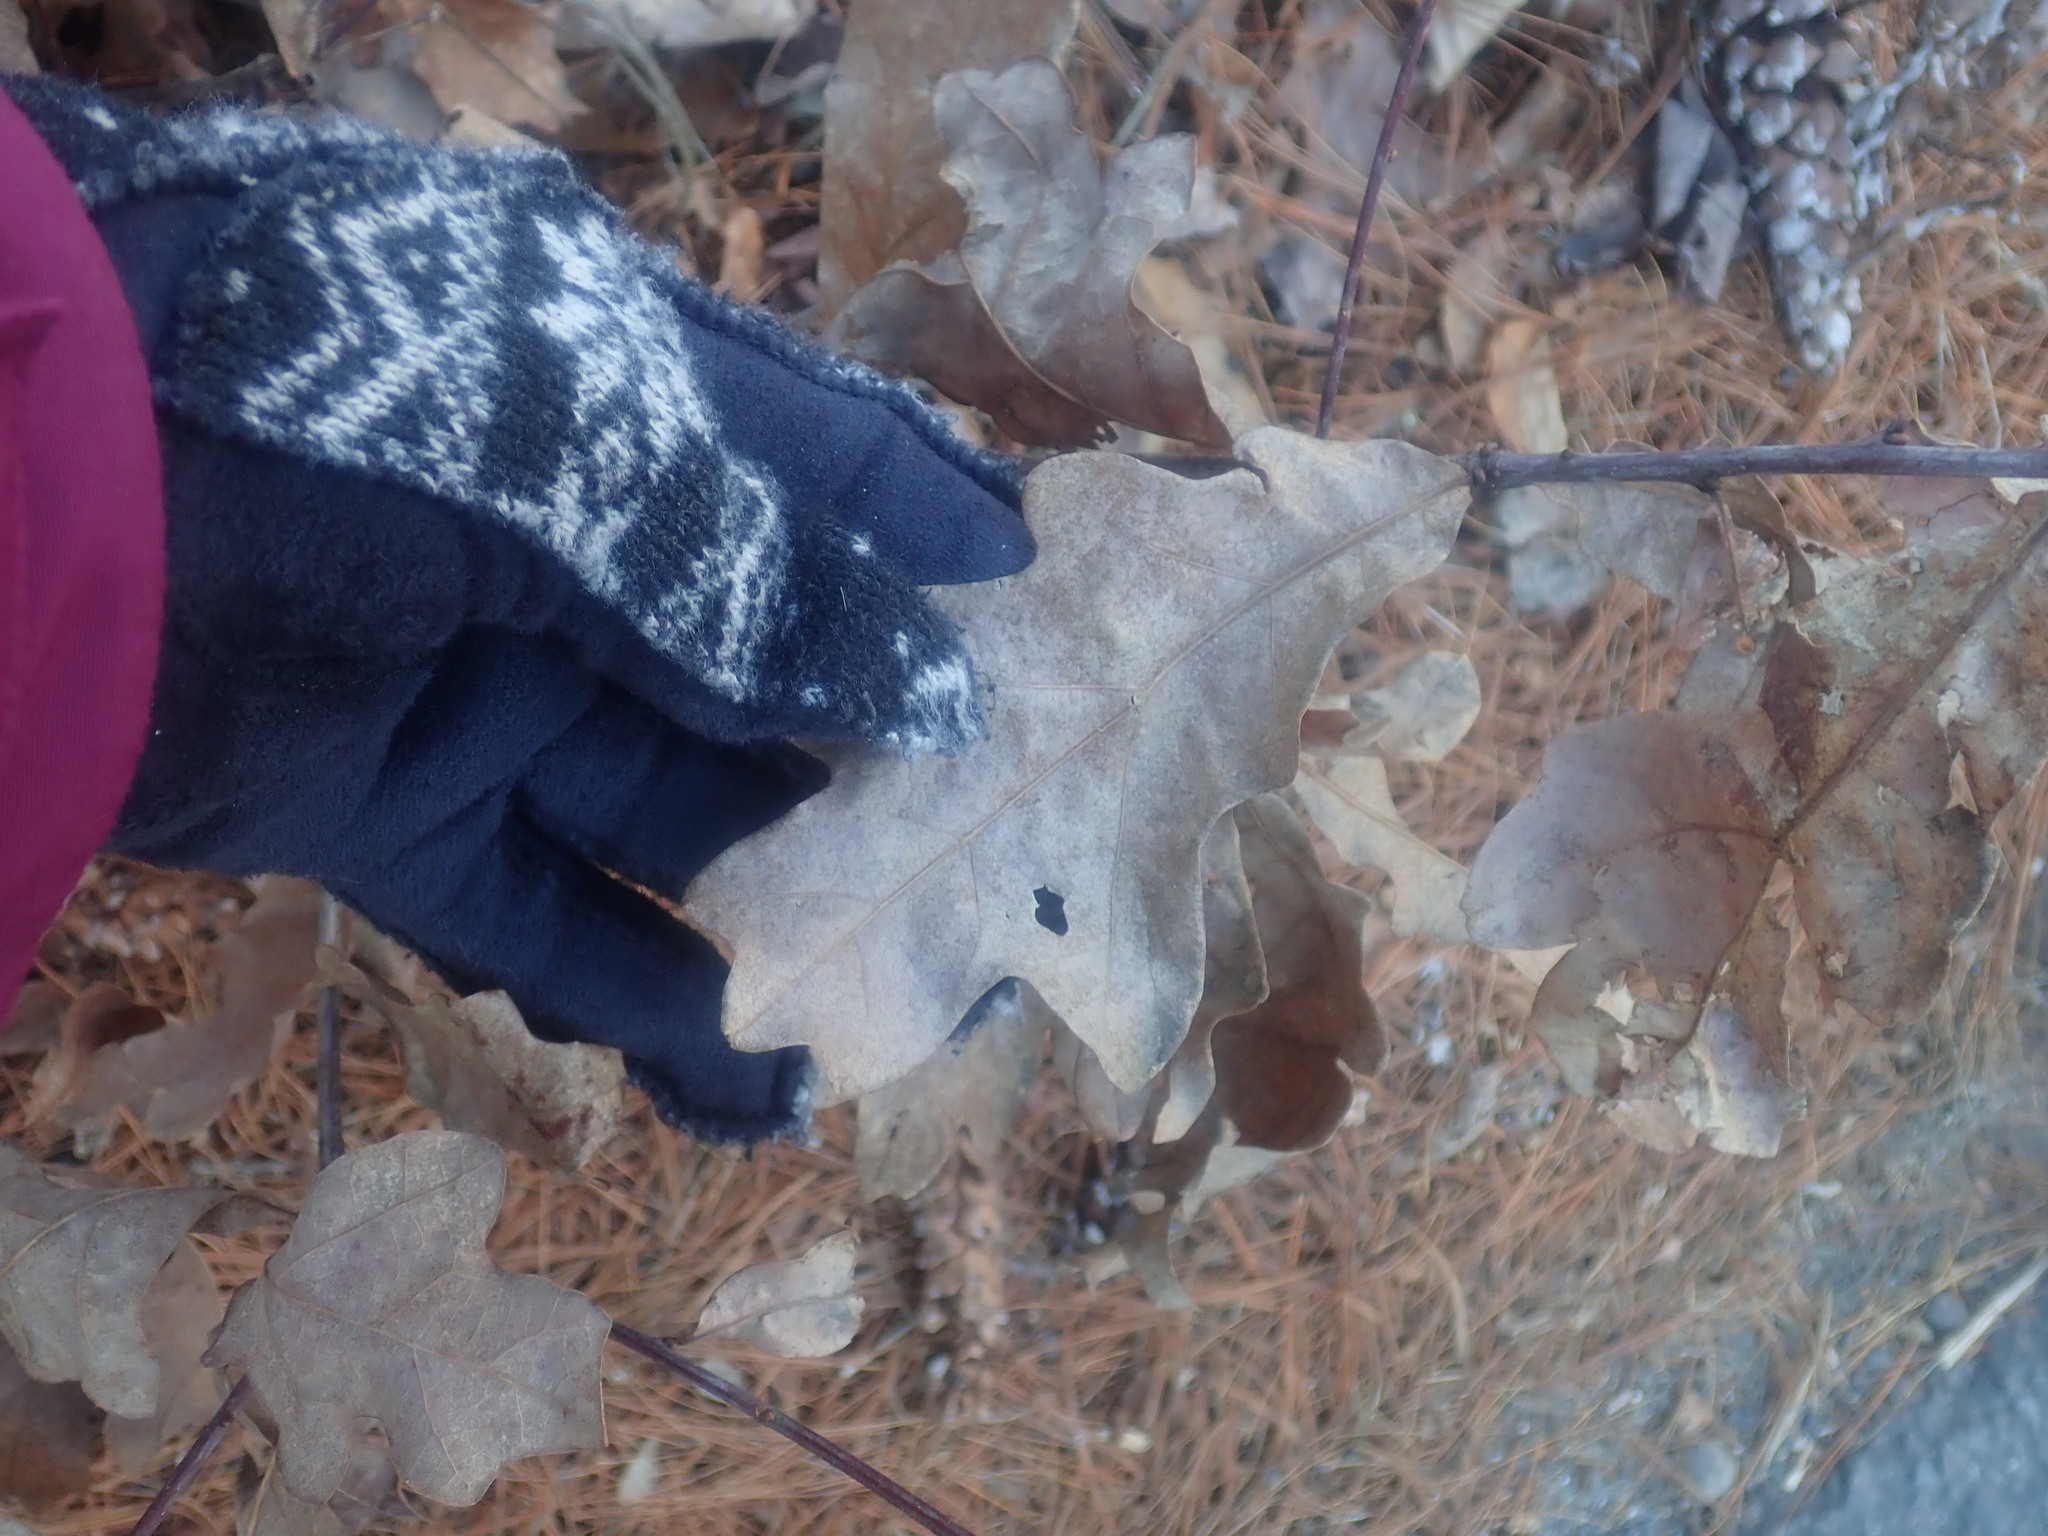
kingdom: Plantae
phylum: Tracheophyta
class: Magnoliopsida
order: Fagales
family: Fagaceae
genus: Quercus
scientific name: Quercus alba
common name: White oak
